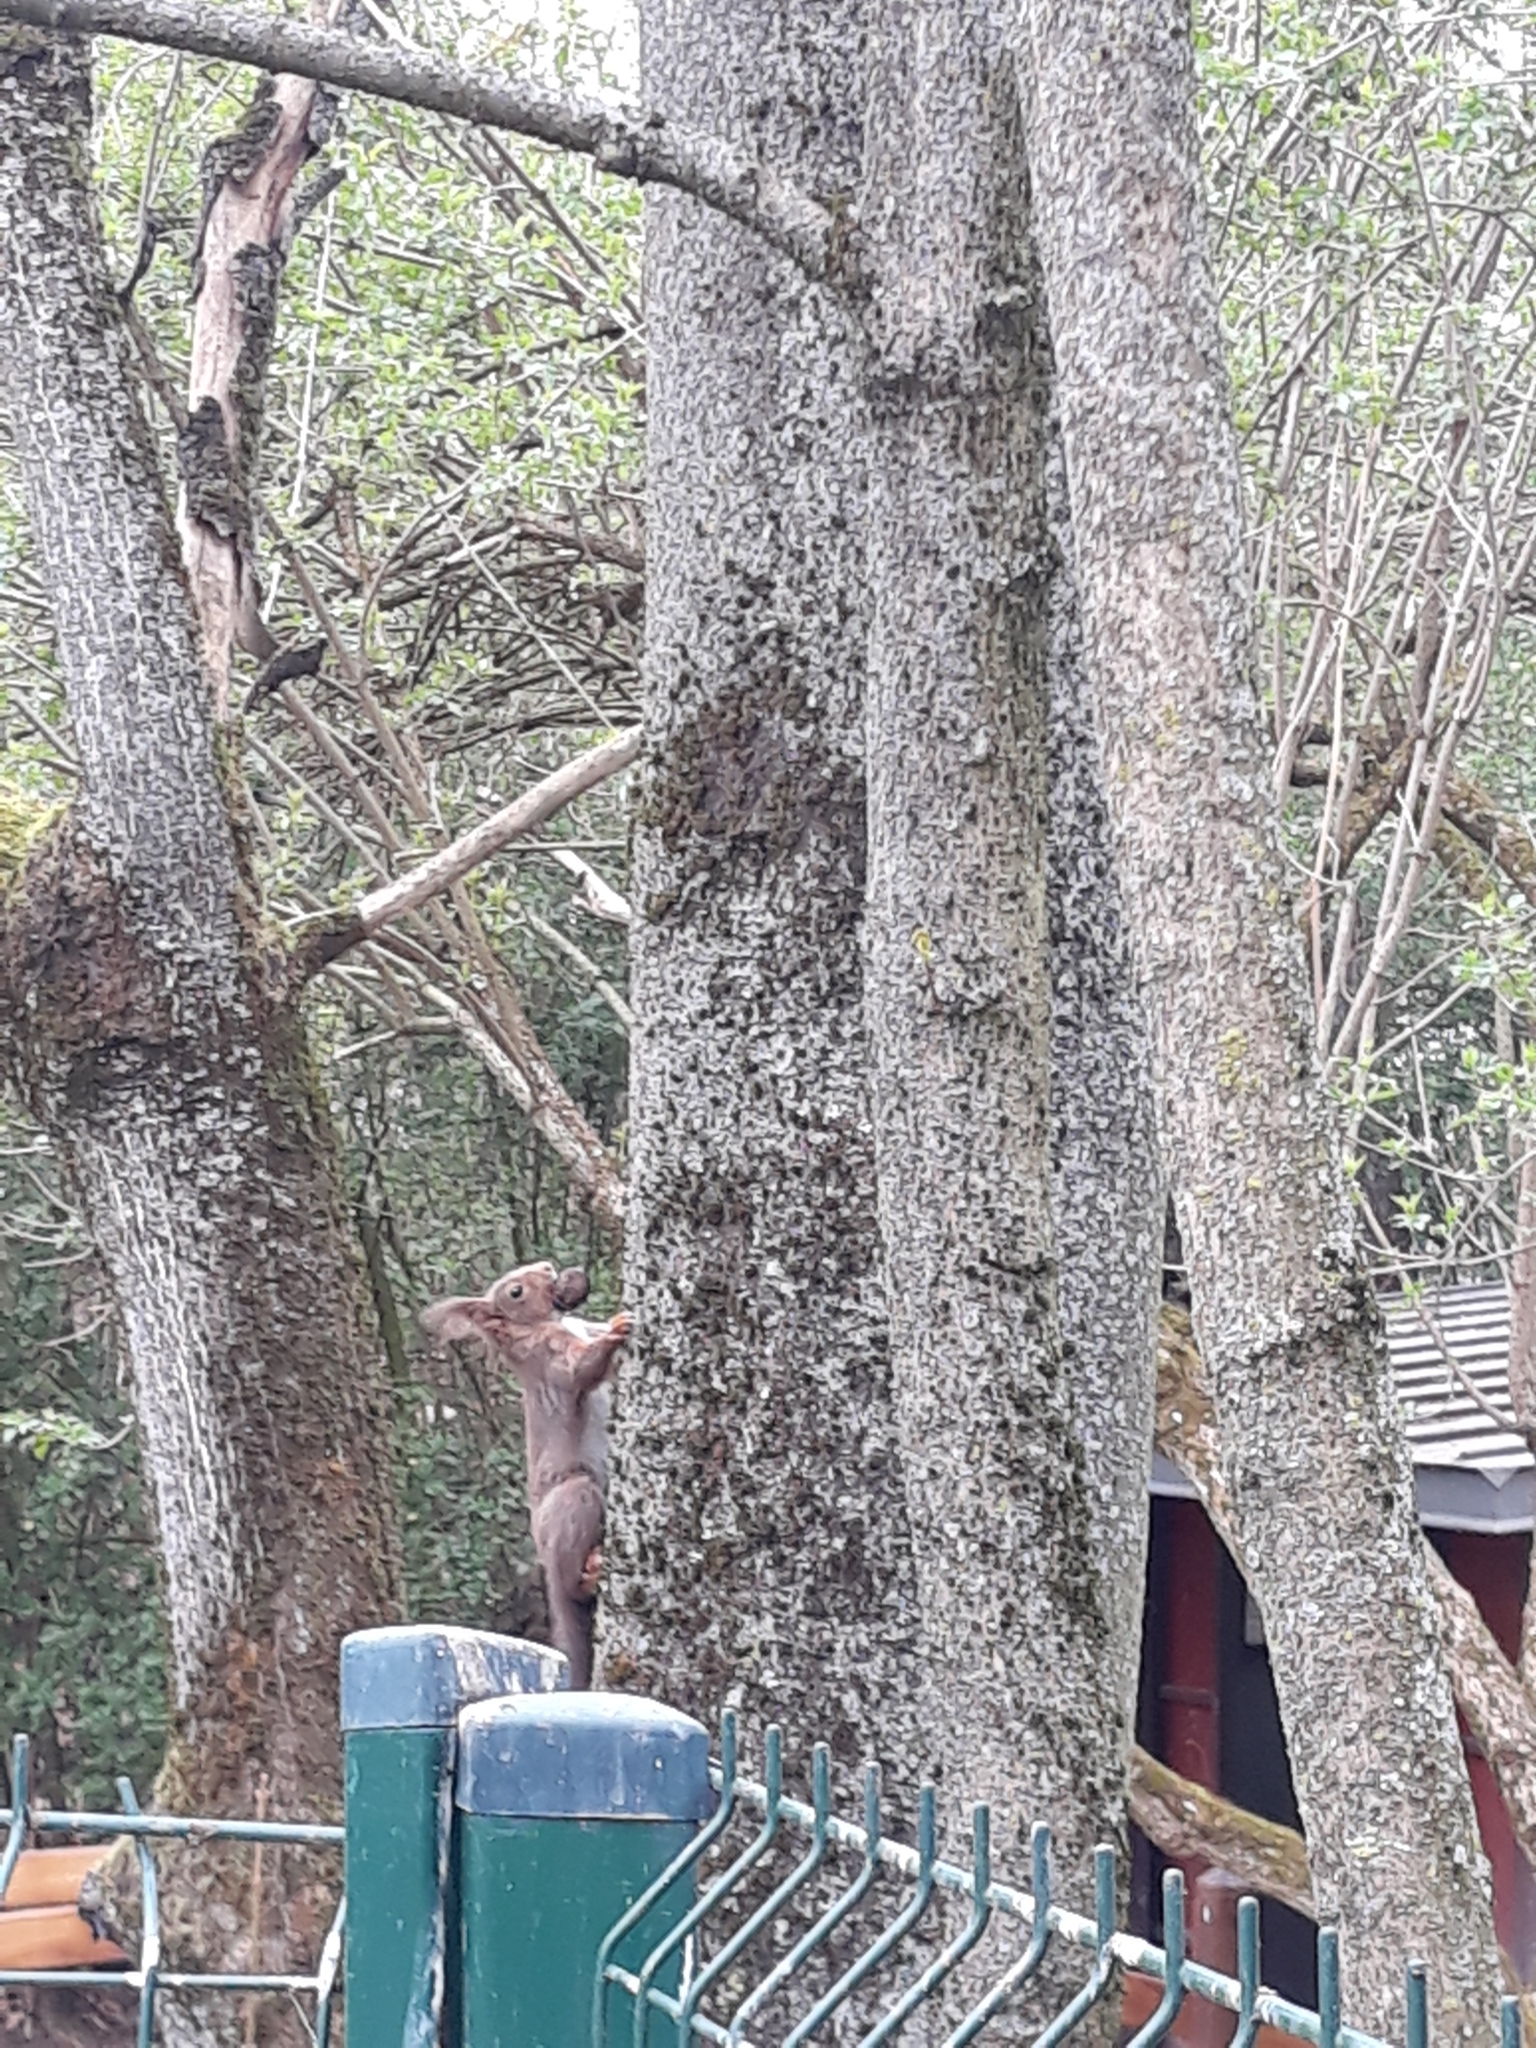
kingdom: Animalia
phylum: Chordata
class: Mammalia
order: Rodentia
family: Sciuridae
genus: Sciurus
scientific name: Sciurus vulgaris
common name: Eurasian red squirrel
